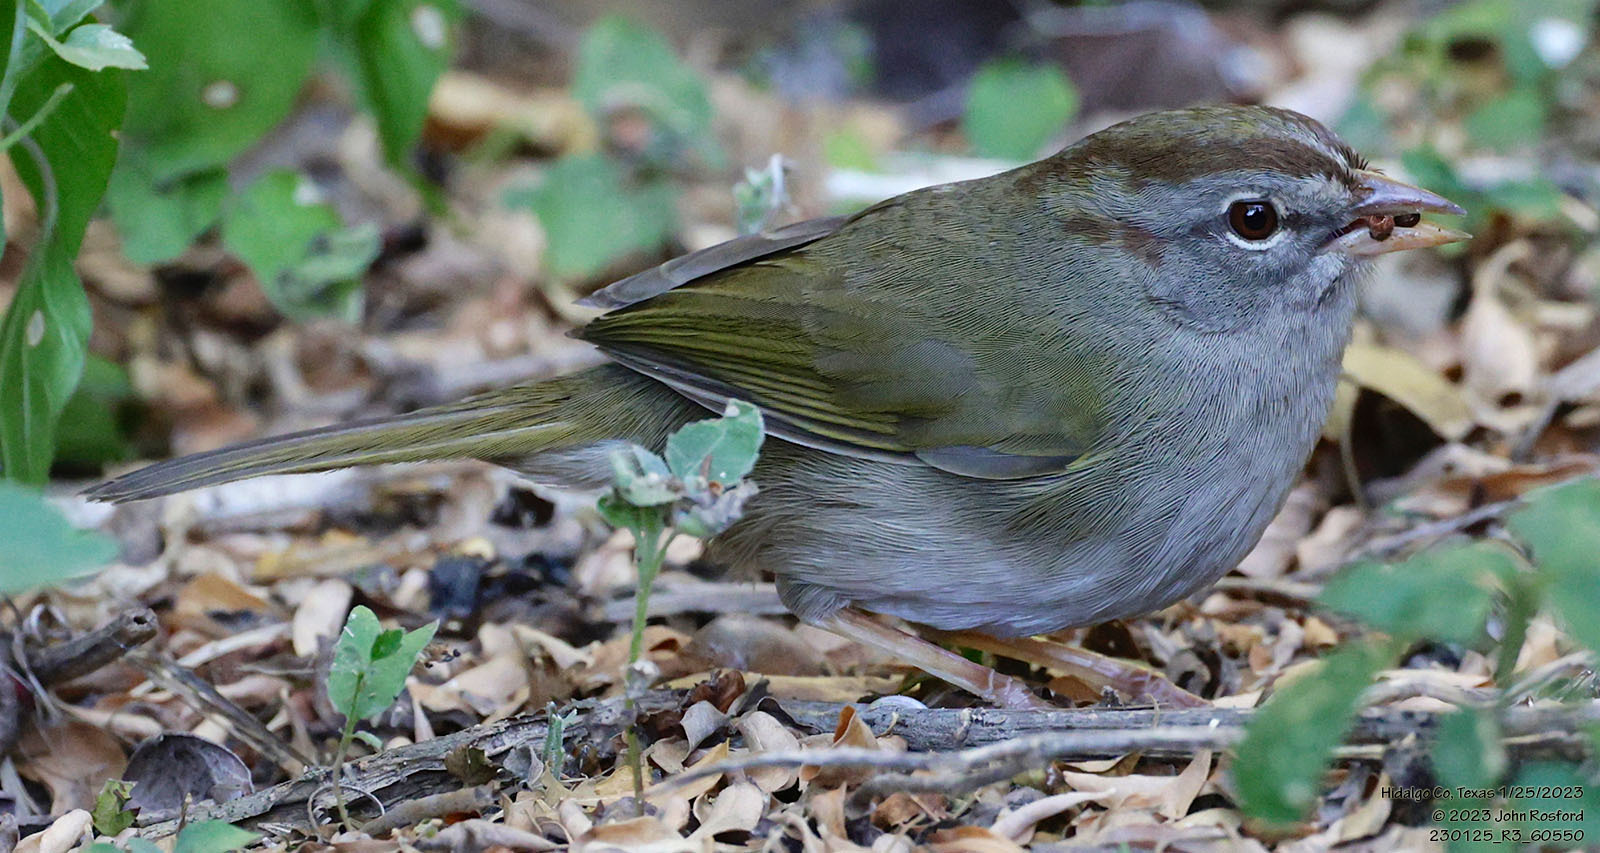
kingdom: Animalia
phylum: Chordata
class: Aves
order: Passeriformes
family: Passerellidae
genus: Arremonops
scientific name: Arremonops rufivirgatus
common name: Olive sparrow
